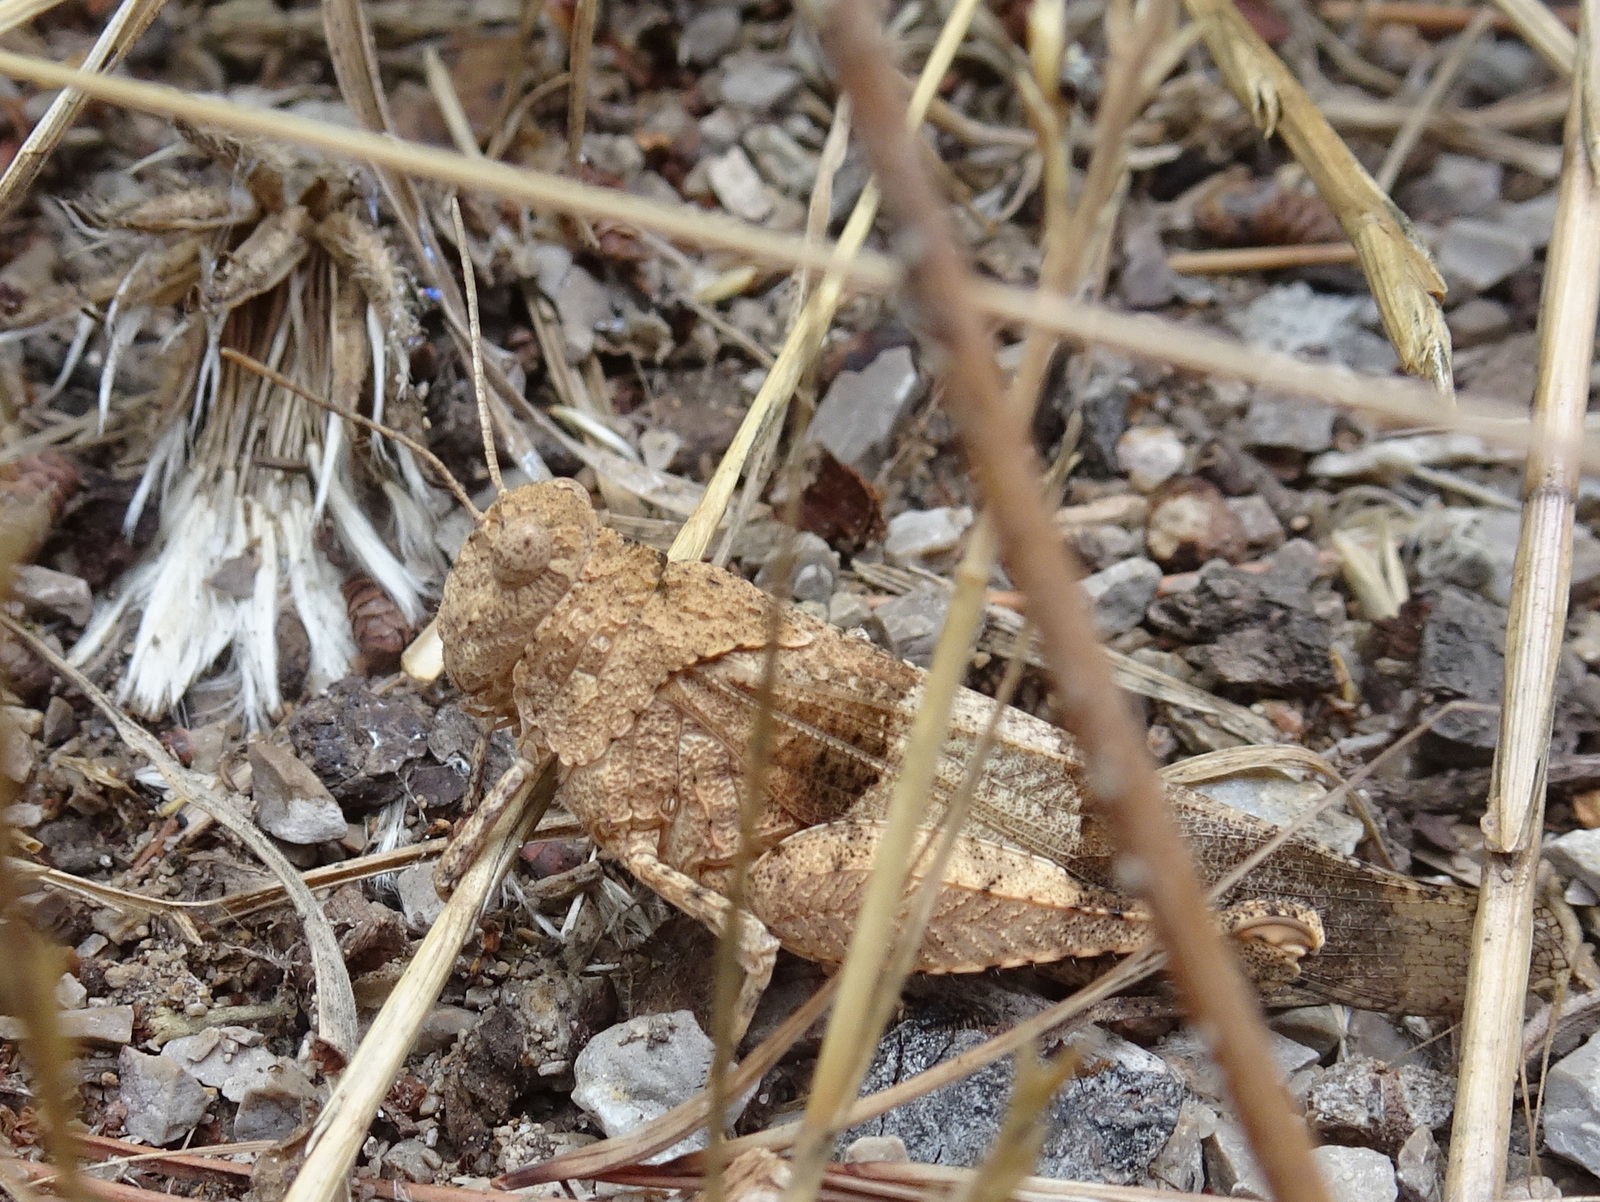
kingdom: Animalia
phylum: Arthropoda
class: Insecta
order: Orthoptera
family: Acrididae
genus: Oedipoda
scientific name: Oedipoda charpentieri
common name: Western band-winged grasshopper
